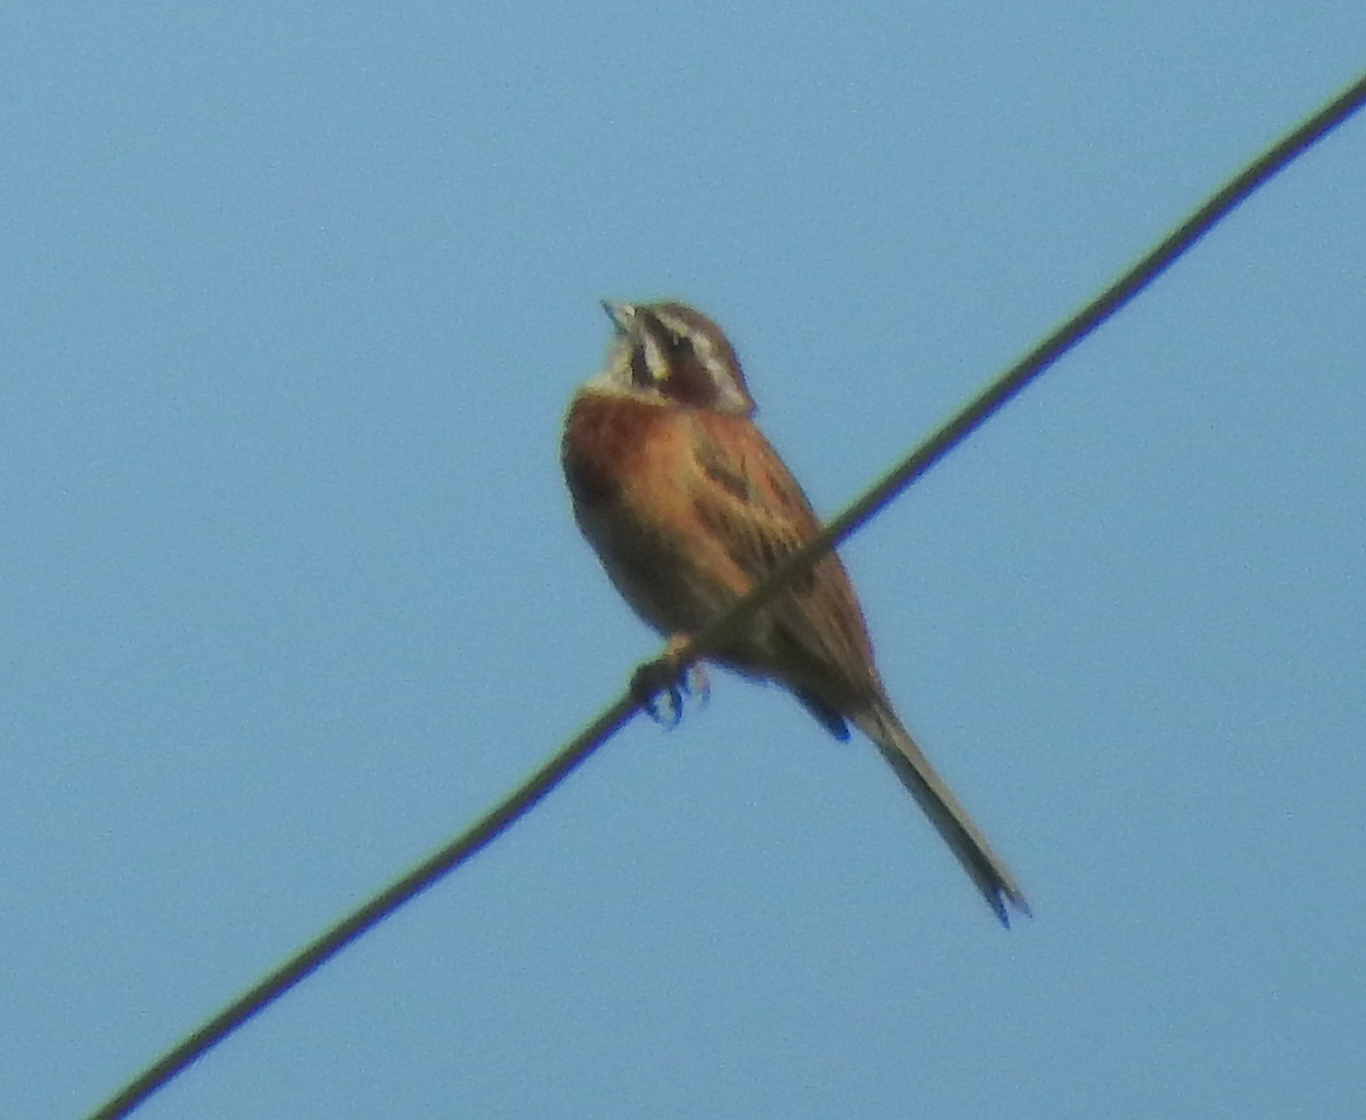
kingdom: Animalia
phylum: Chordata
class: Aves
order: Passeriformes
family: Emberizidae
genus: Emberiza
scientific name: Emberiza cioides
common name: Meadow bunting
